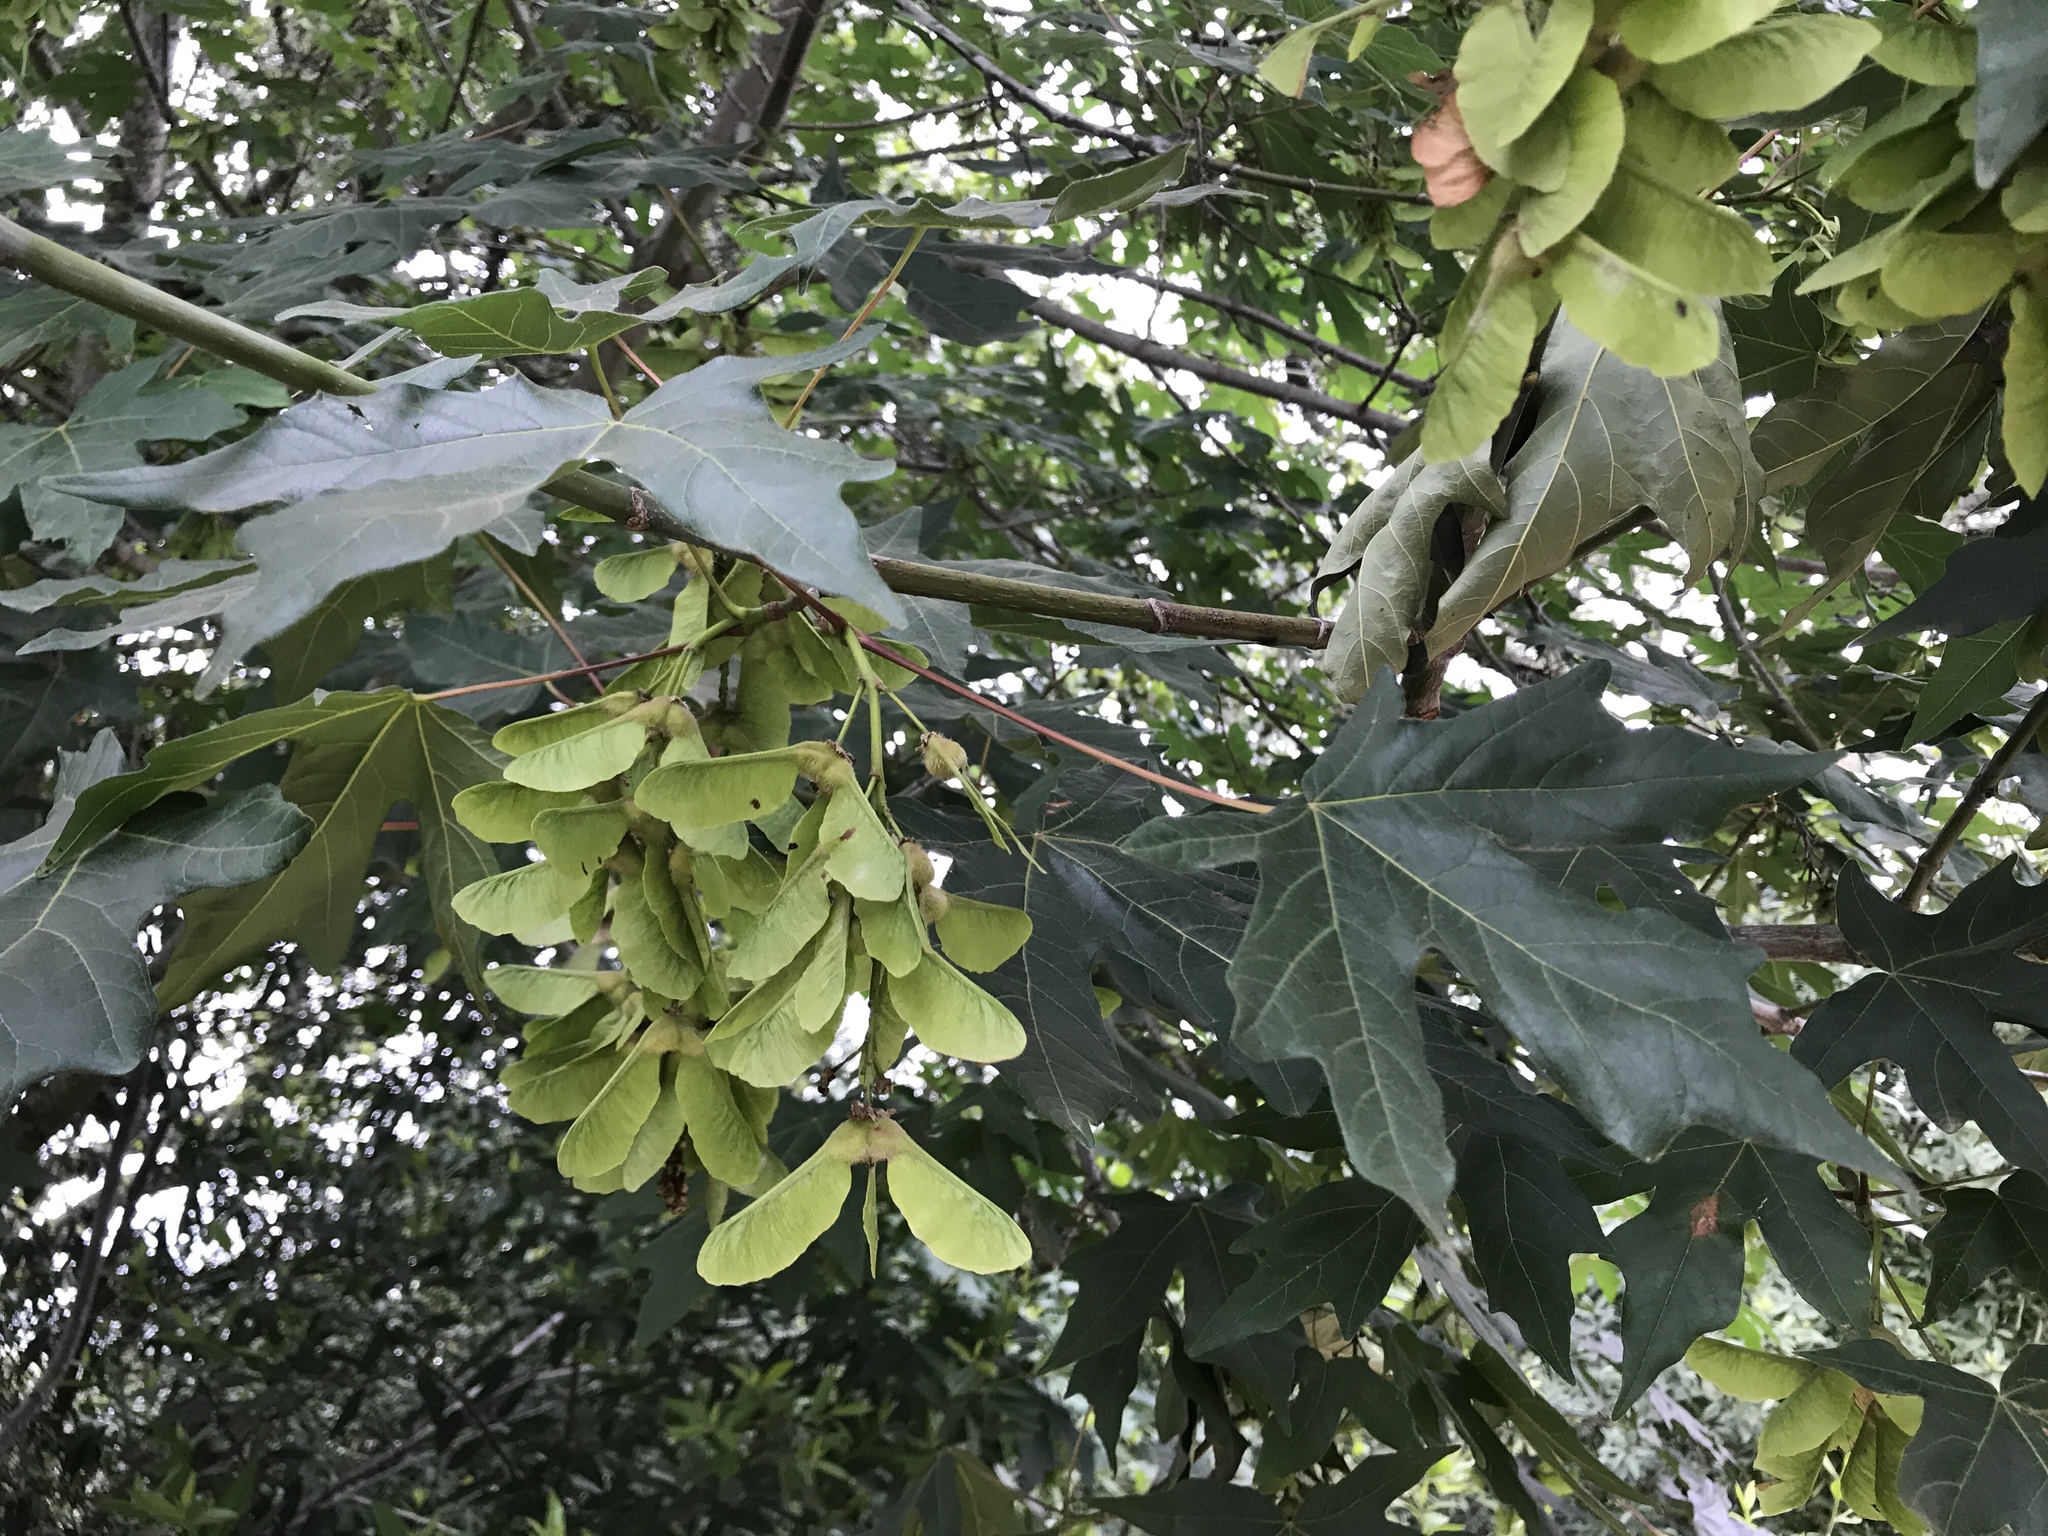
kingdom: Plantae
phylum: Tracheophyta
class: Magnoliopsida
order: Sapindales
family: Sapindaceae
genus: Acer
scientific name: Acer macrophyllum
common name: Oregon maple
